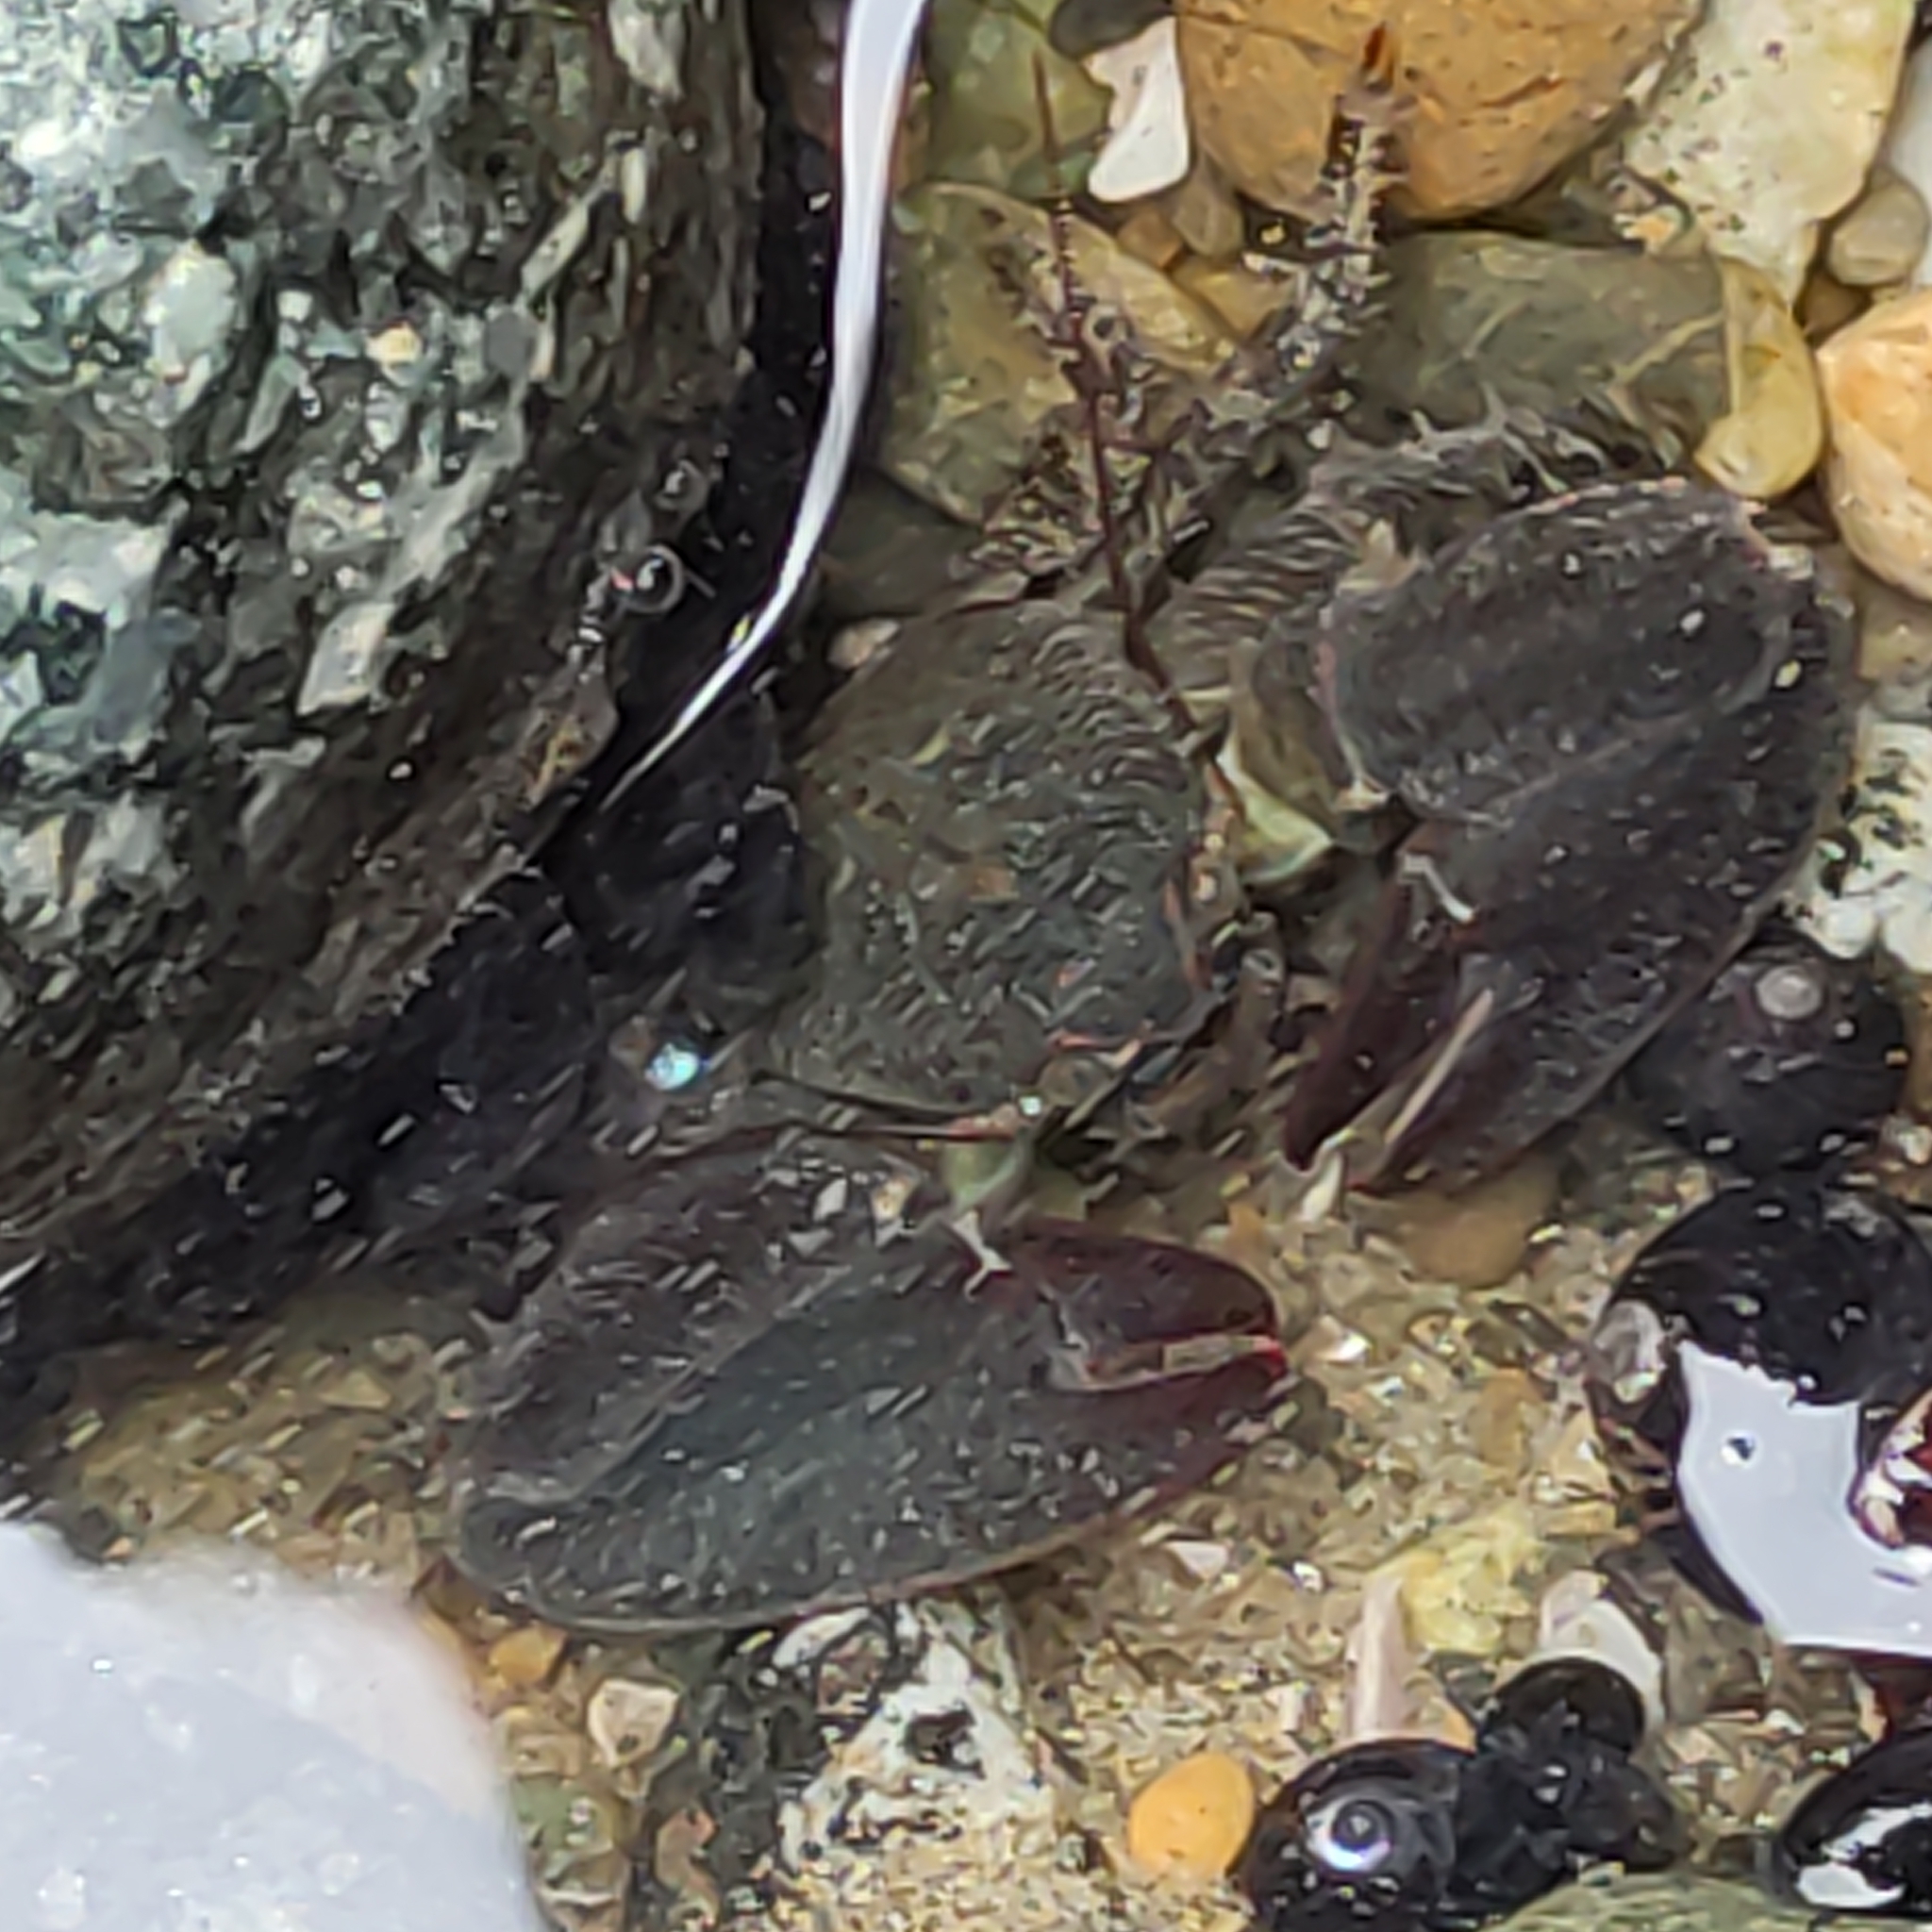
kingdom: Animalia
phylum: Arthropoda
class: Malacostraca
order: Decapoda
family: Porcellanidae
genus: Petrolisthes
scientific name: Petrolisthes elongatus
